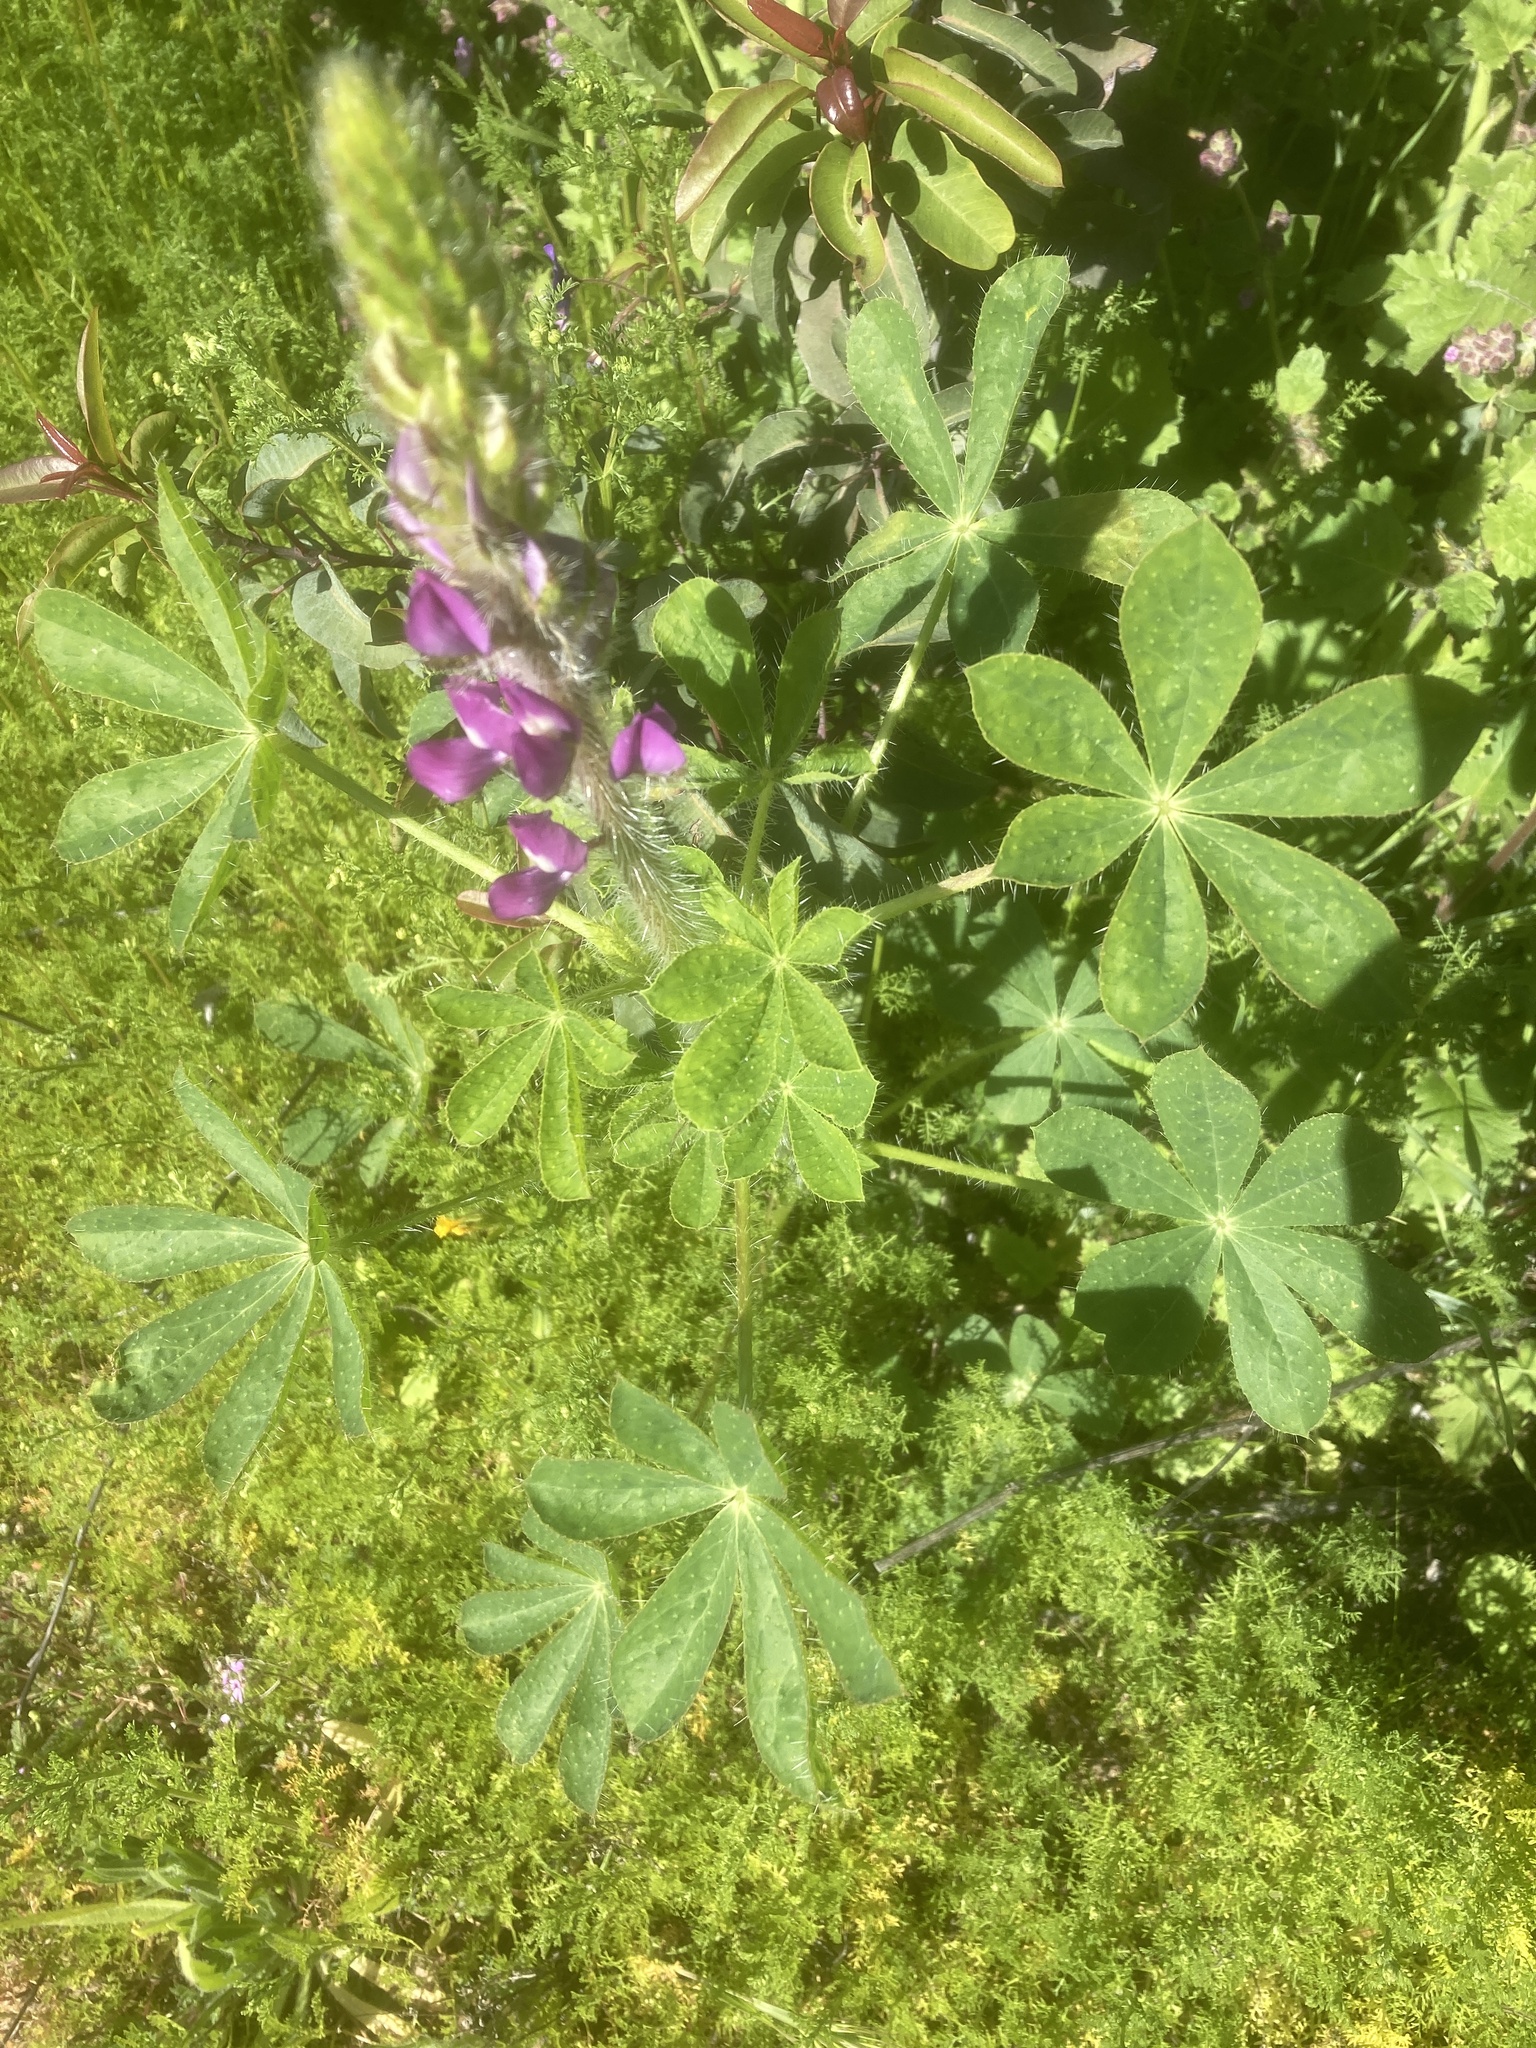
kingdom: Plantae
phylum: Tracheophyta
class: Magnoliopsida
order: Fabales
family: Fabaceae
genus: Lupinus
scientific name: Lupinus hirsutissimus
